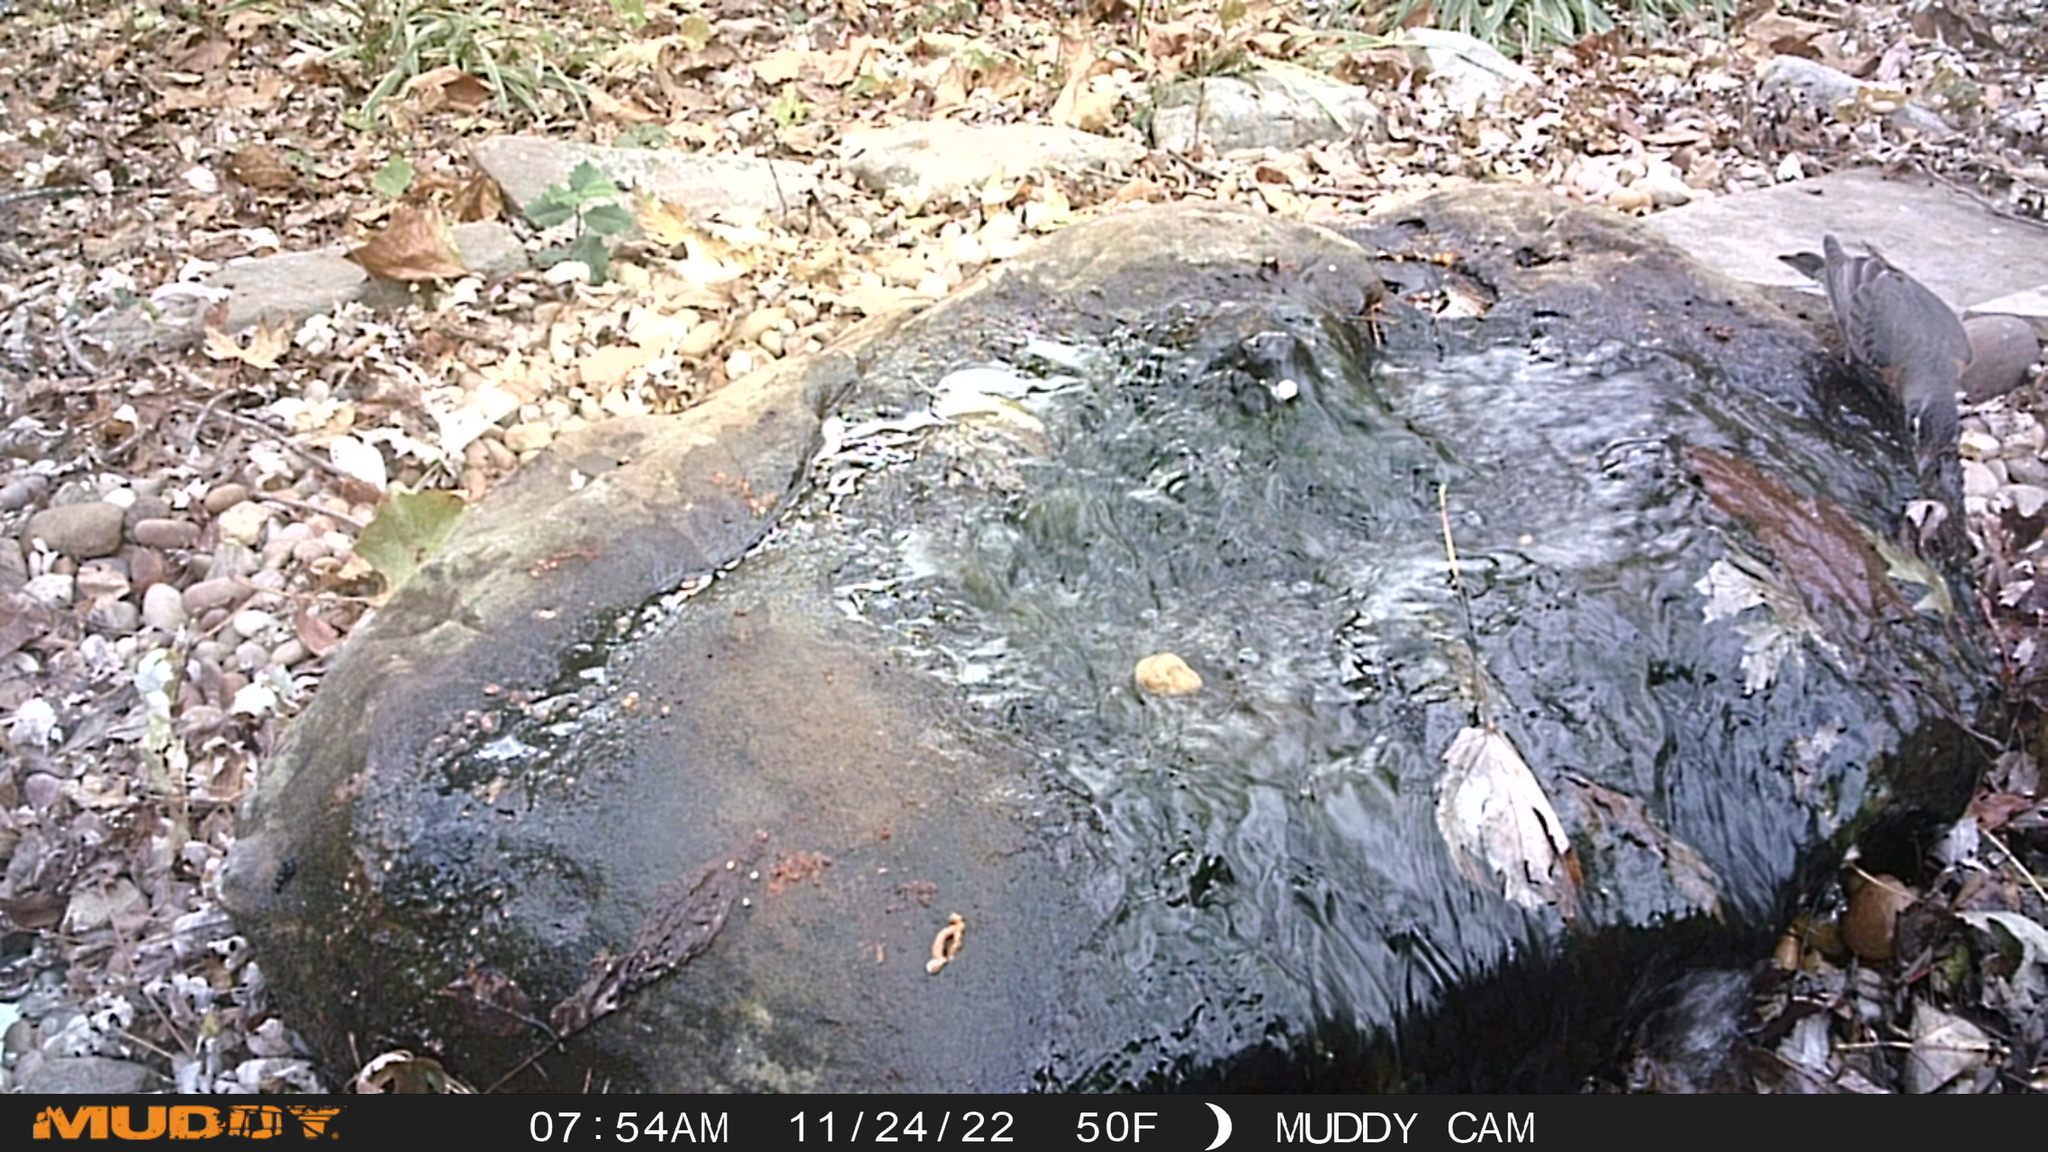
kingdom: Animalia
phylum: Chordata
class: Aves
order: Passeriformes
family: Turdidae
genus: Turdus
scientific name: Turdus migratorius
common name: American robin
